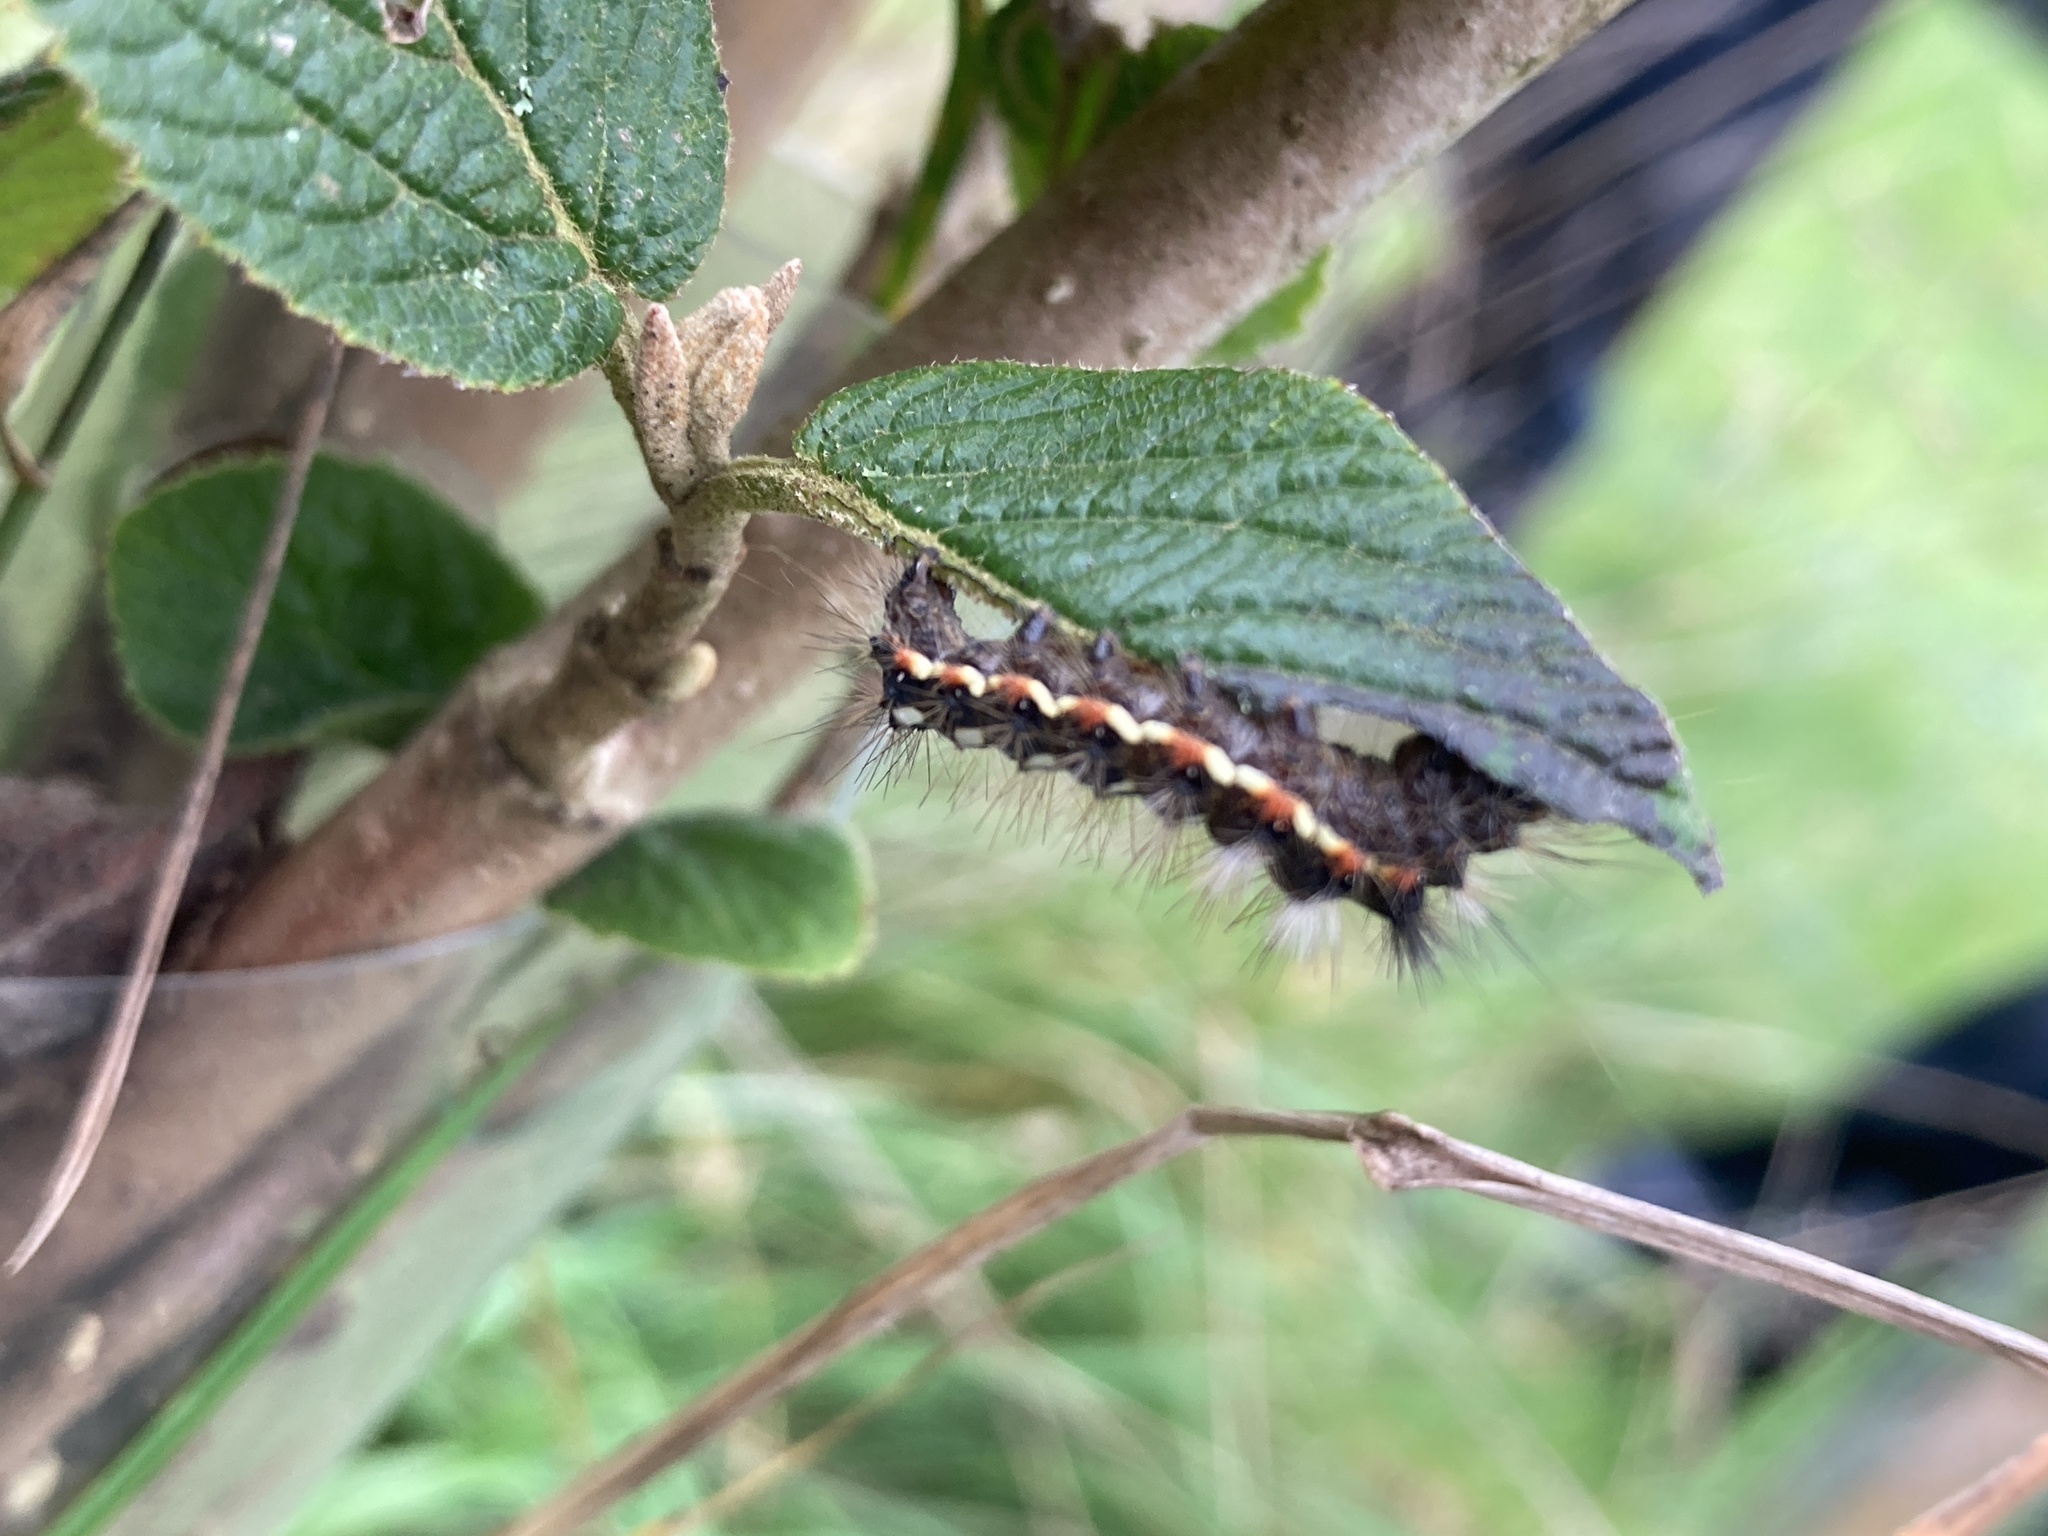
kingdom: Animalia
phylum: Arthropoda
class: Insecta
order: Lepidoptera
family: Noctuidae
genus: Acronicta
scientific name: Acronicta rumicis
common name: Knot grass
